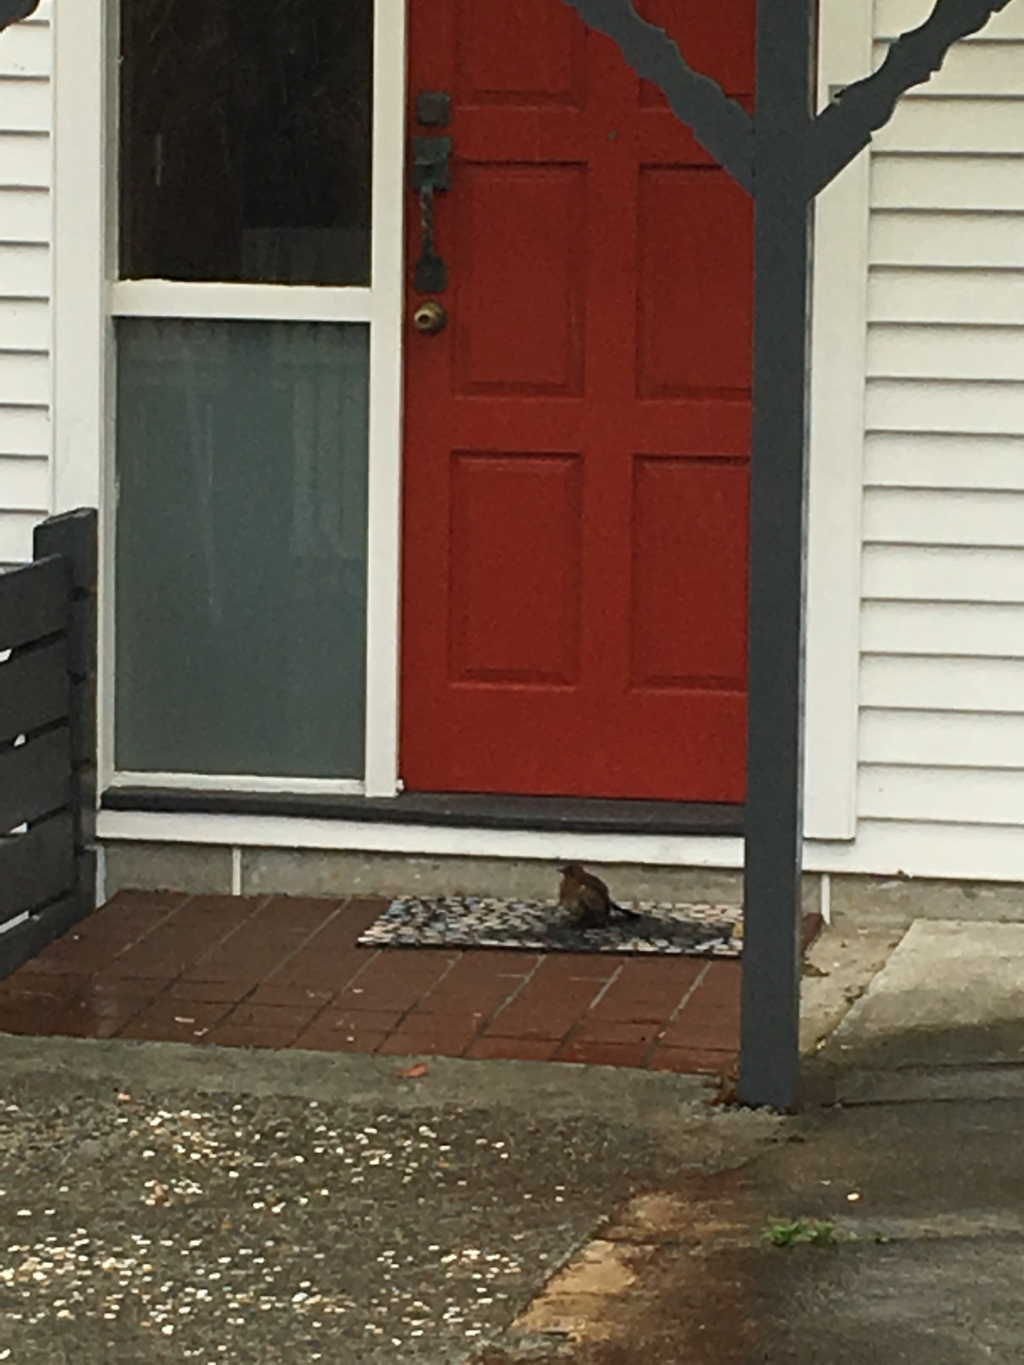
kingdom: Animalia
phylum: Chordata
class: Aves
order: Passeriformes
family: Turdidae
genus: Turdus
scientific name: Turdus merula
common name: Common blackbird
